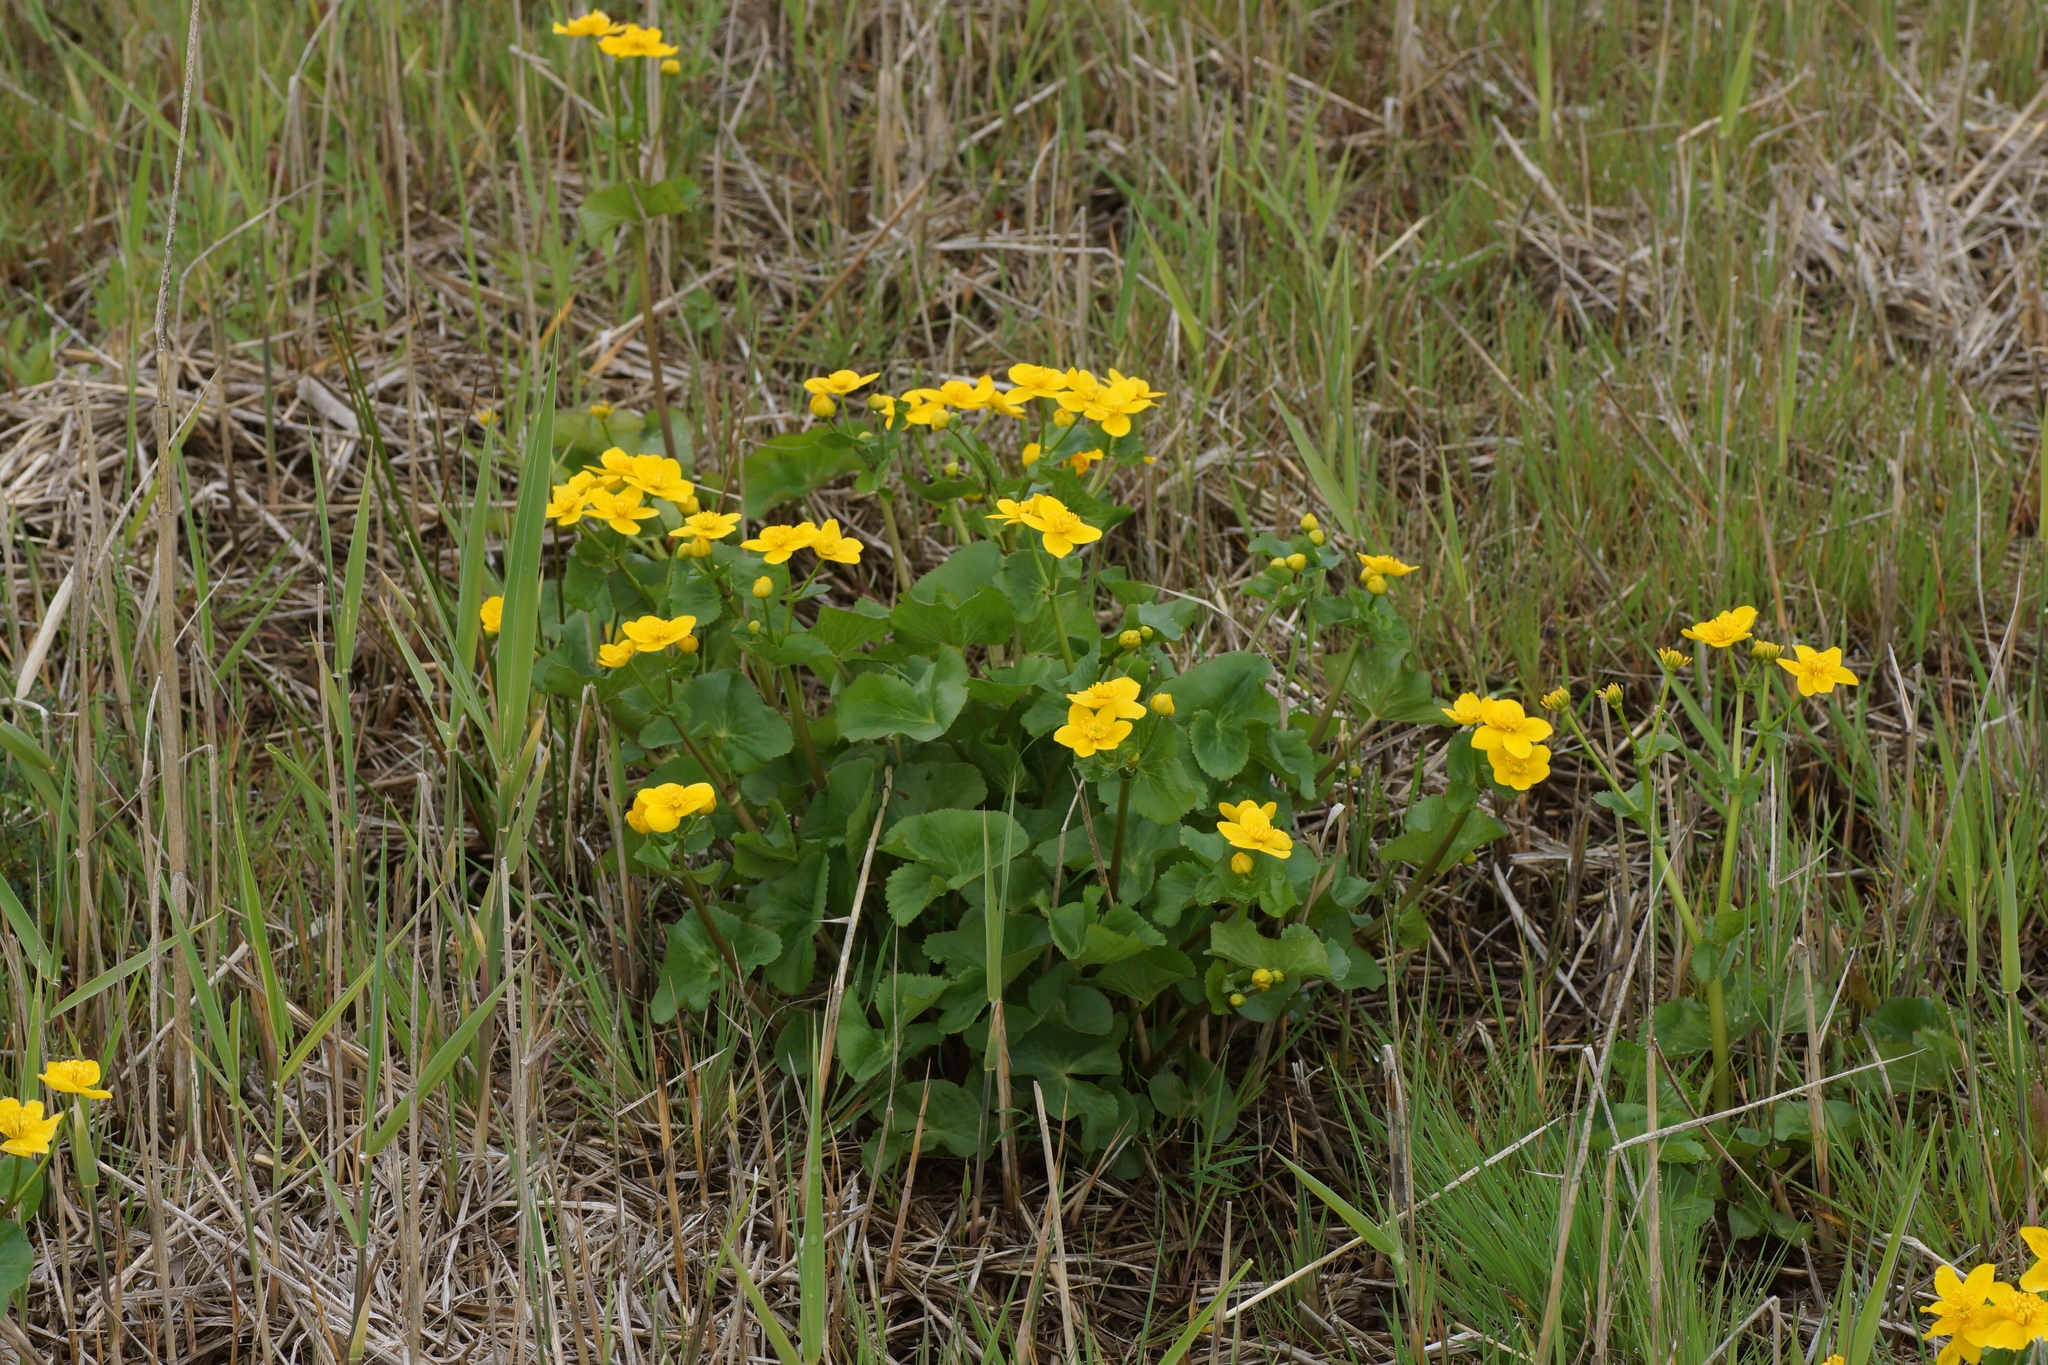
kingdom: Plantae
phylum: Tracheophyta
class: Magnoliopsida
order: Ranunculales
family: Ranunculaceae
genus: Caltha
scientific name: Caltha palustris
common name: Marsh marigold
